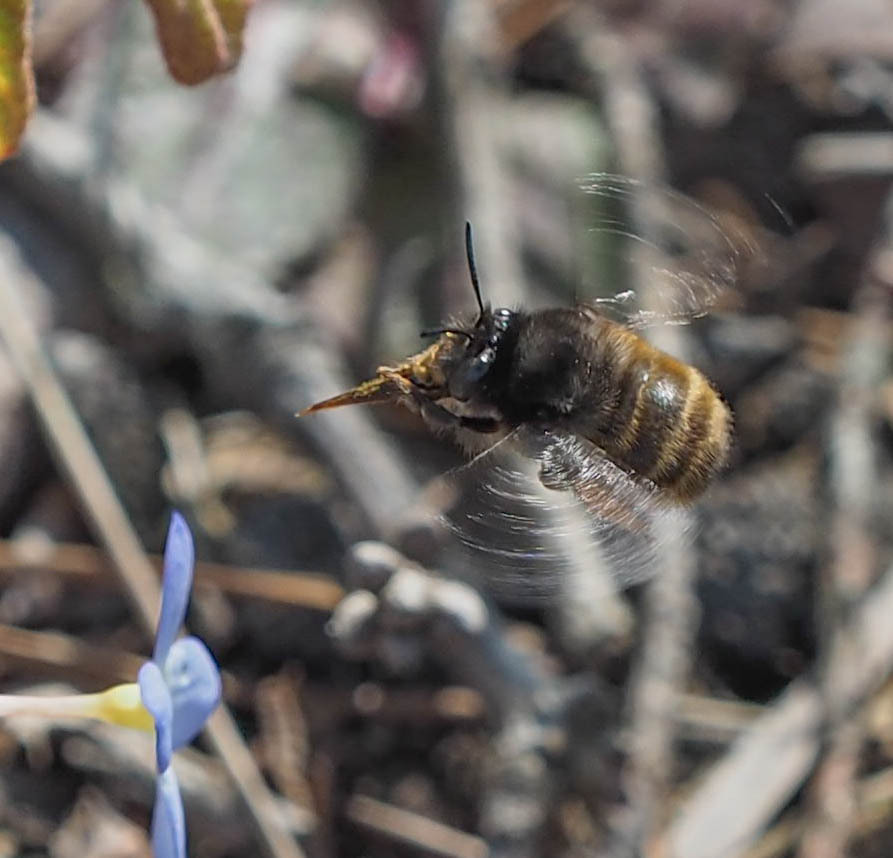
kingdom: Animalia
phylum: Arthropoda
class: Insecta
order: Hymenoptera
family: Apidae
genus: Anthophora
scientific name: Anthophora villosula
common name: Asian shaggy digger
